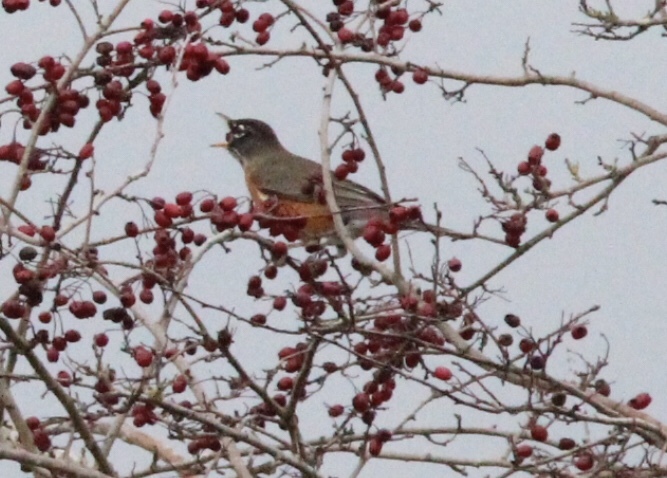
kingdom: Animalia
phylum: Chordata
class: Aves
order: Passeriformes
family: Turdidae
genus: Turdus
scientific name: Turdus migratorius
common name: American robin
